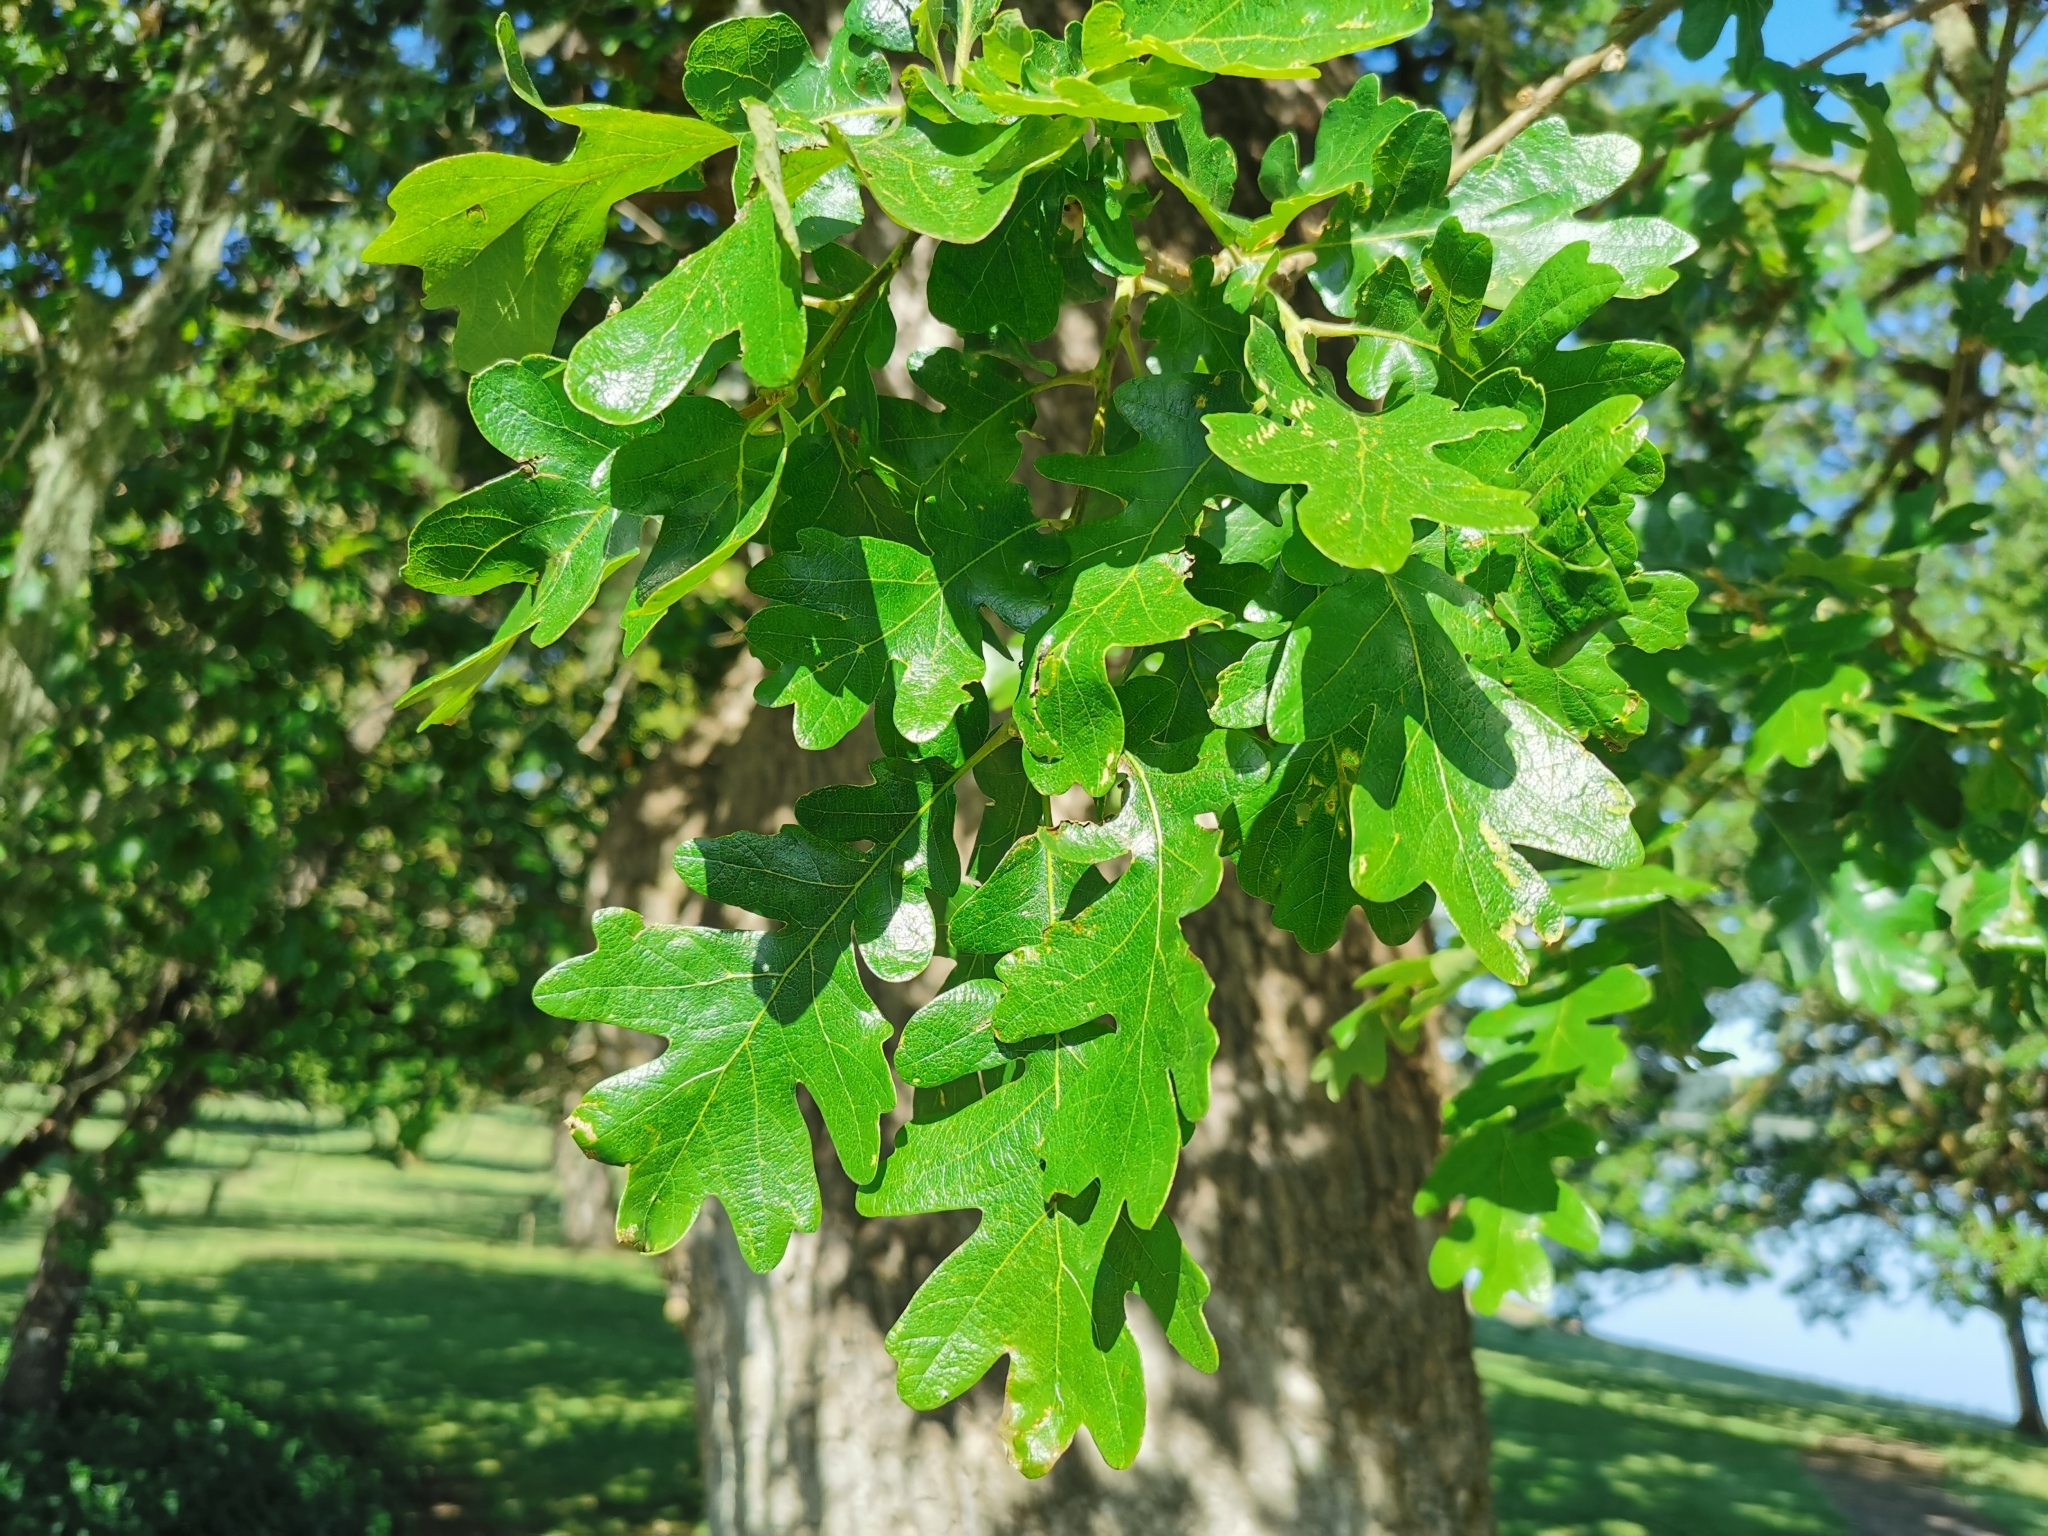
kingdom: Animalia
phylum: Arthropoda
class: Insecta
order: Hymenoptera
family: Cynipidae
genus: Burnettweldia
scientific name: Burnettweldia
